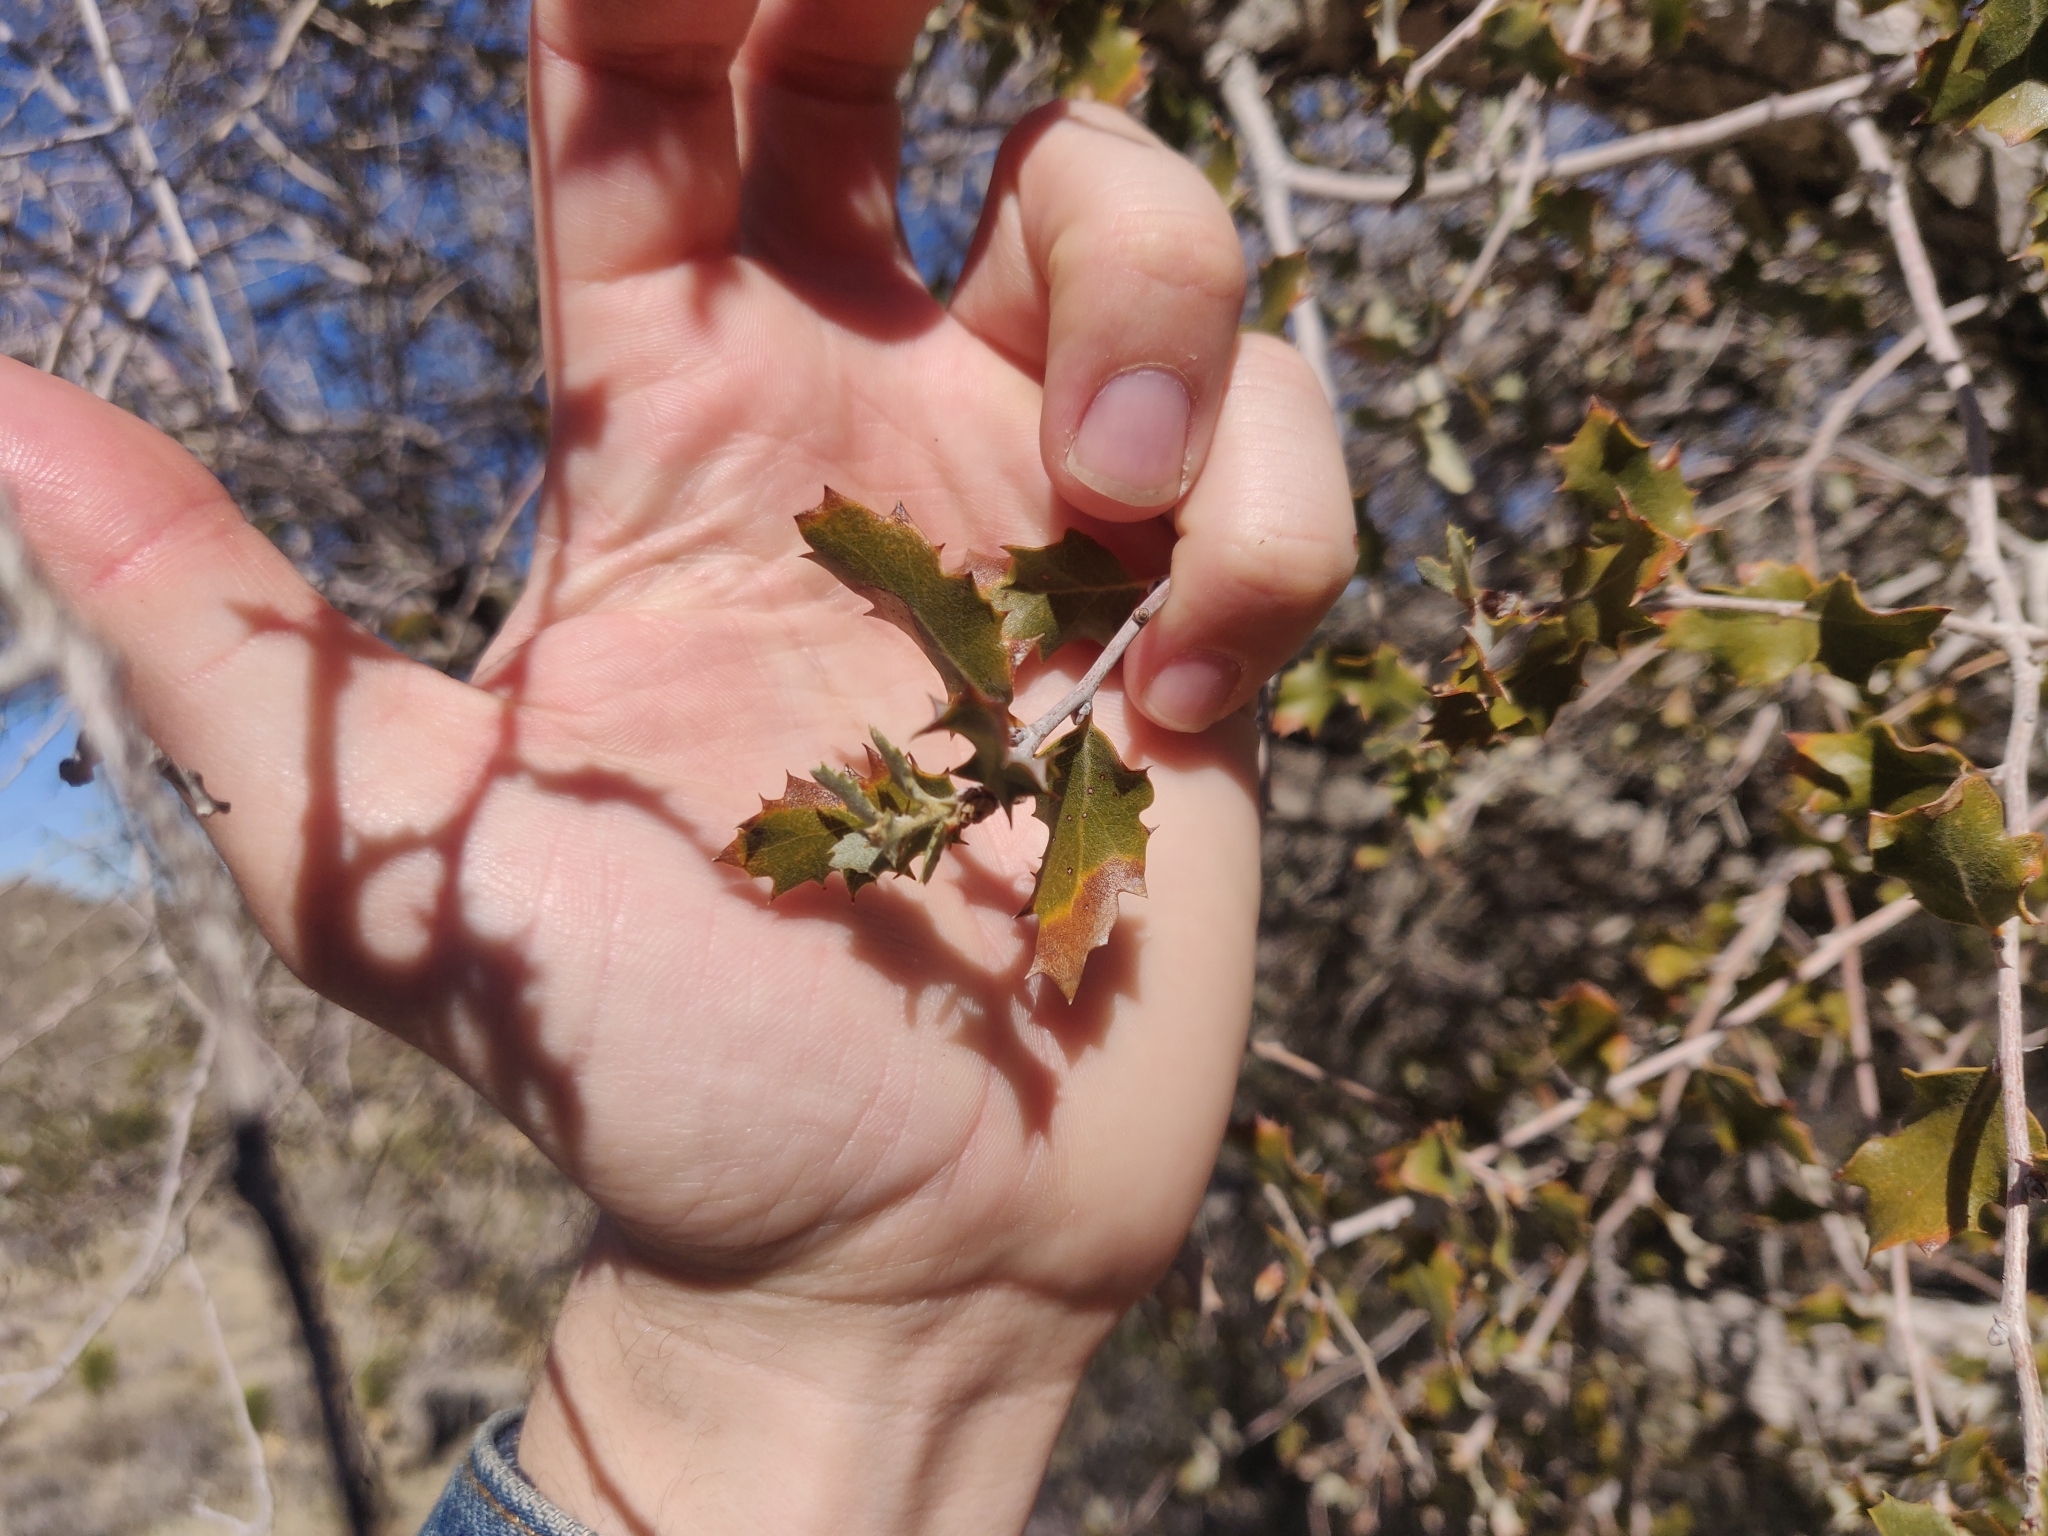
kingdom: Plantae
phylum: Tracheophyta
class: Magnoliopsida
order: Fagales
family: Fagaceae
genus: Quercus
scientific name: Quercus cornelius-mulleri
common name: Muller oak
